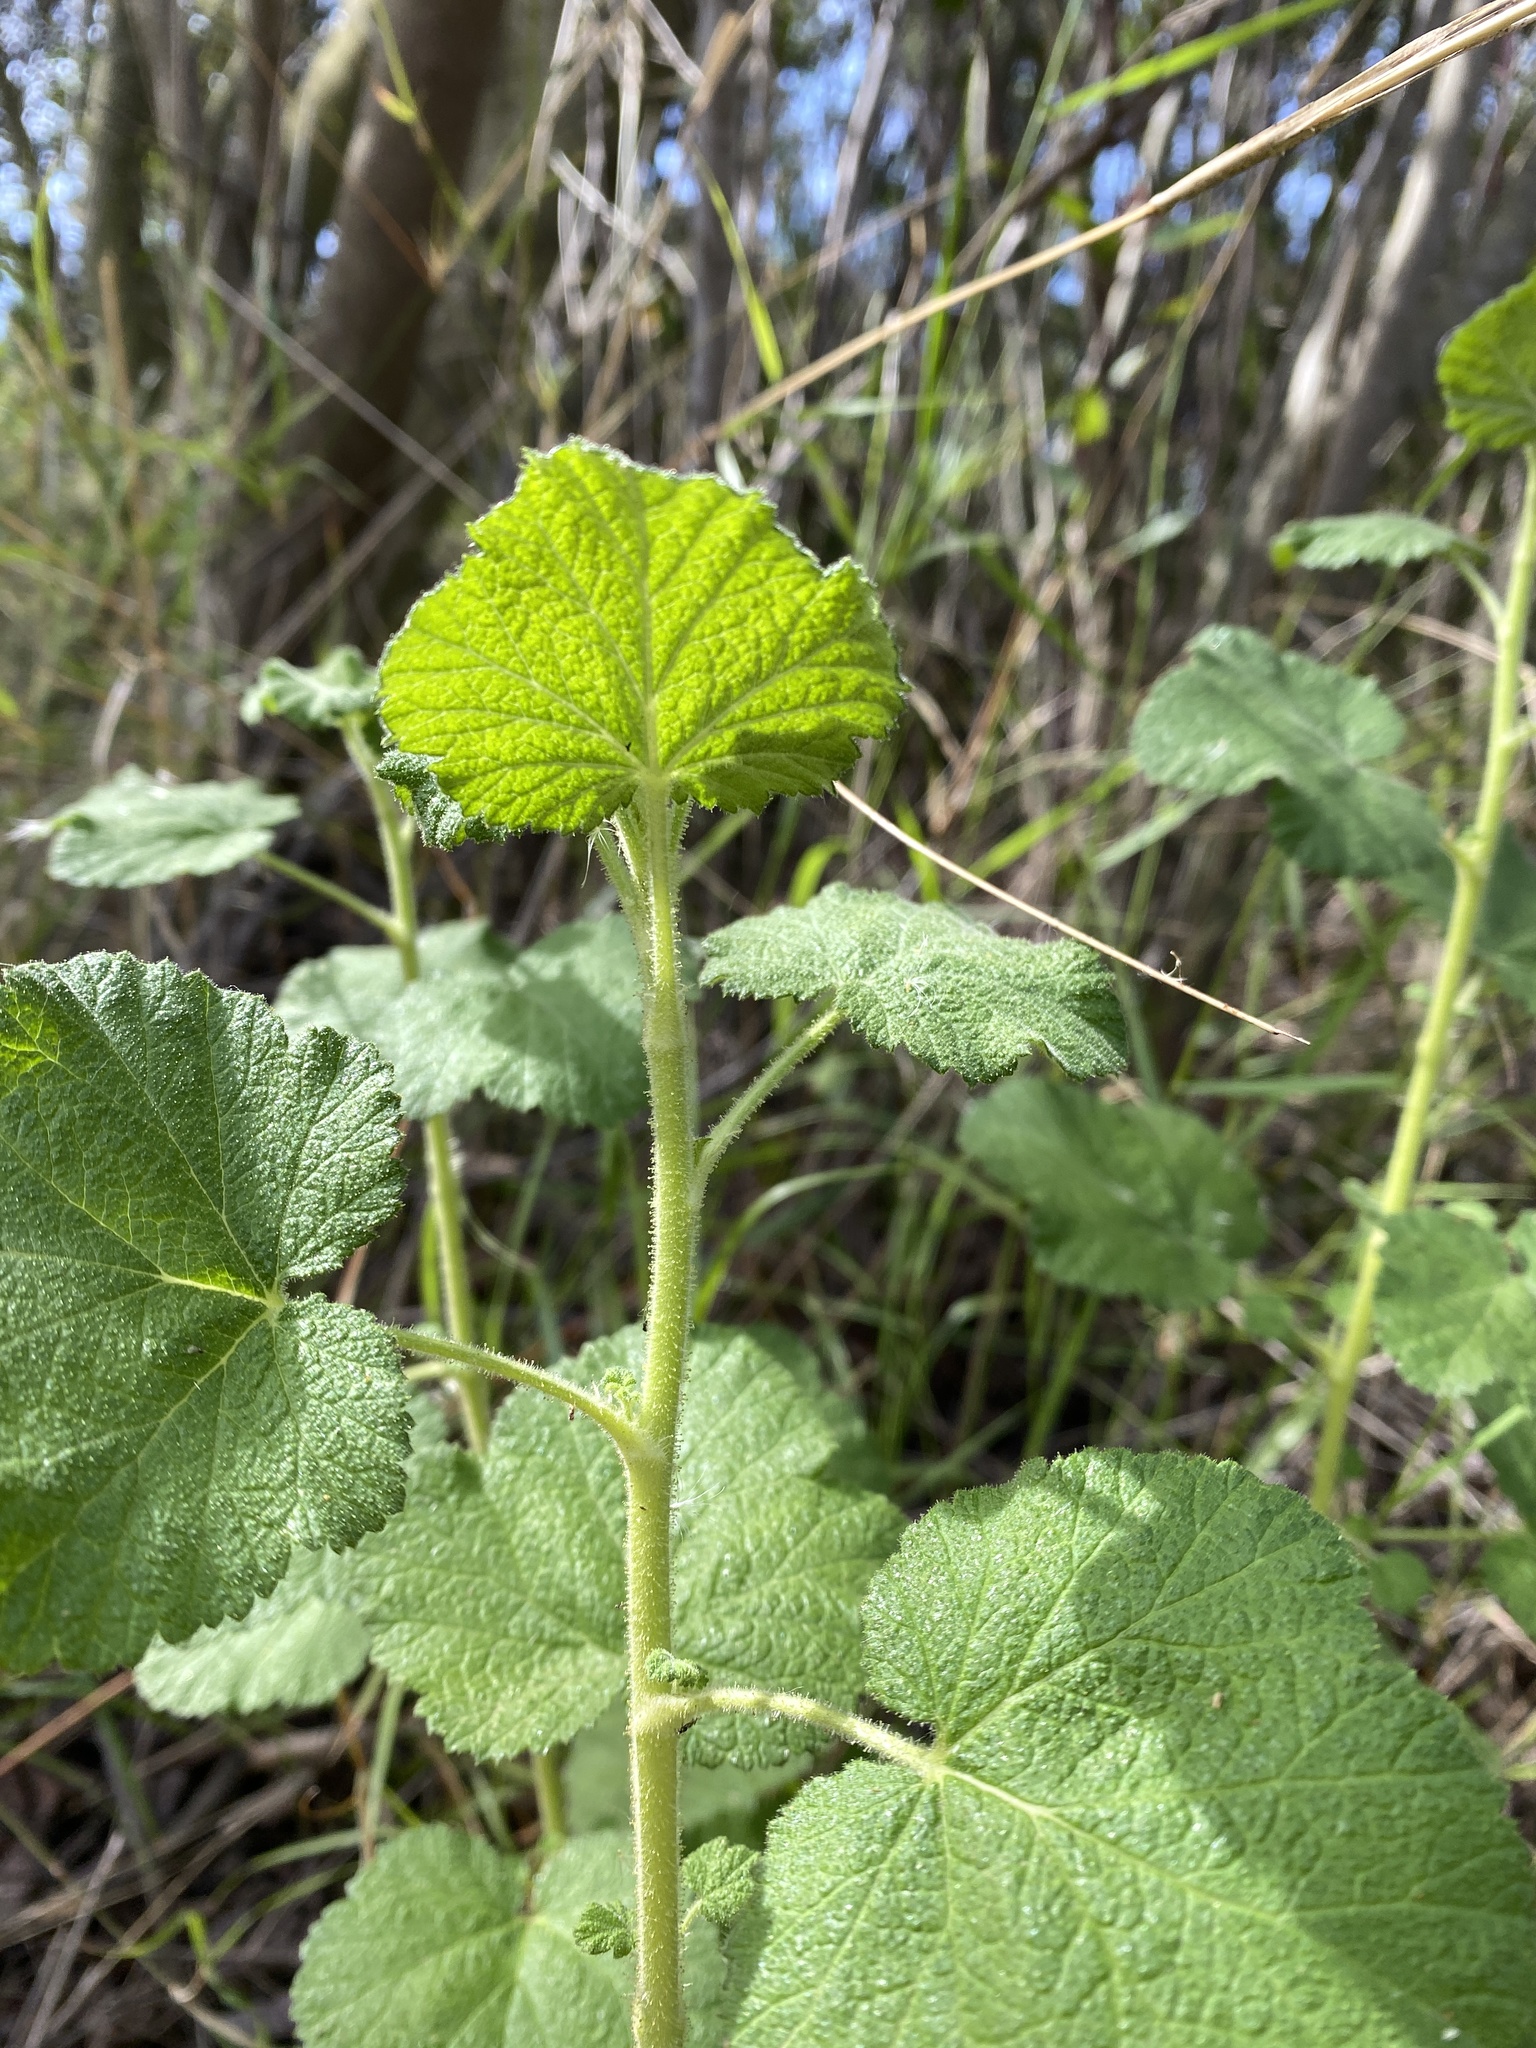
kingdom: Plantae
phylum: Tracheophyta
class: Magnoliopsida
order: Saxifragales
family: Grossulariaceae
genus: Ribes
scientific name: Ribes indecorum
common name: White-flower currant
